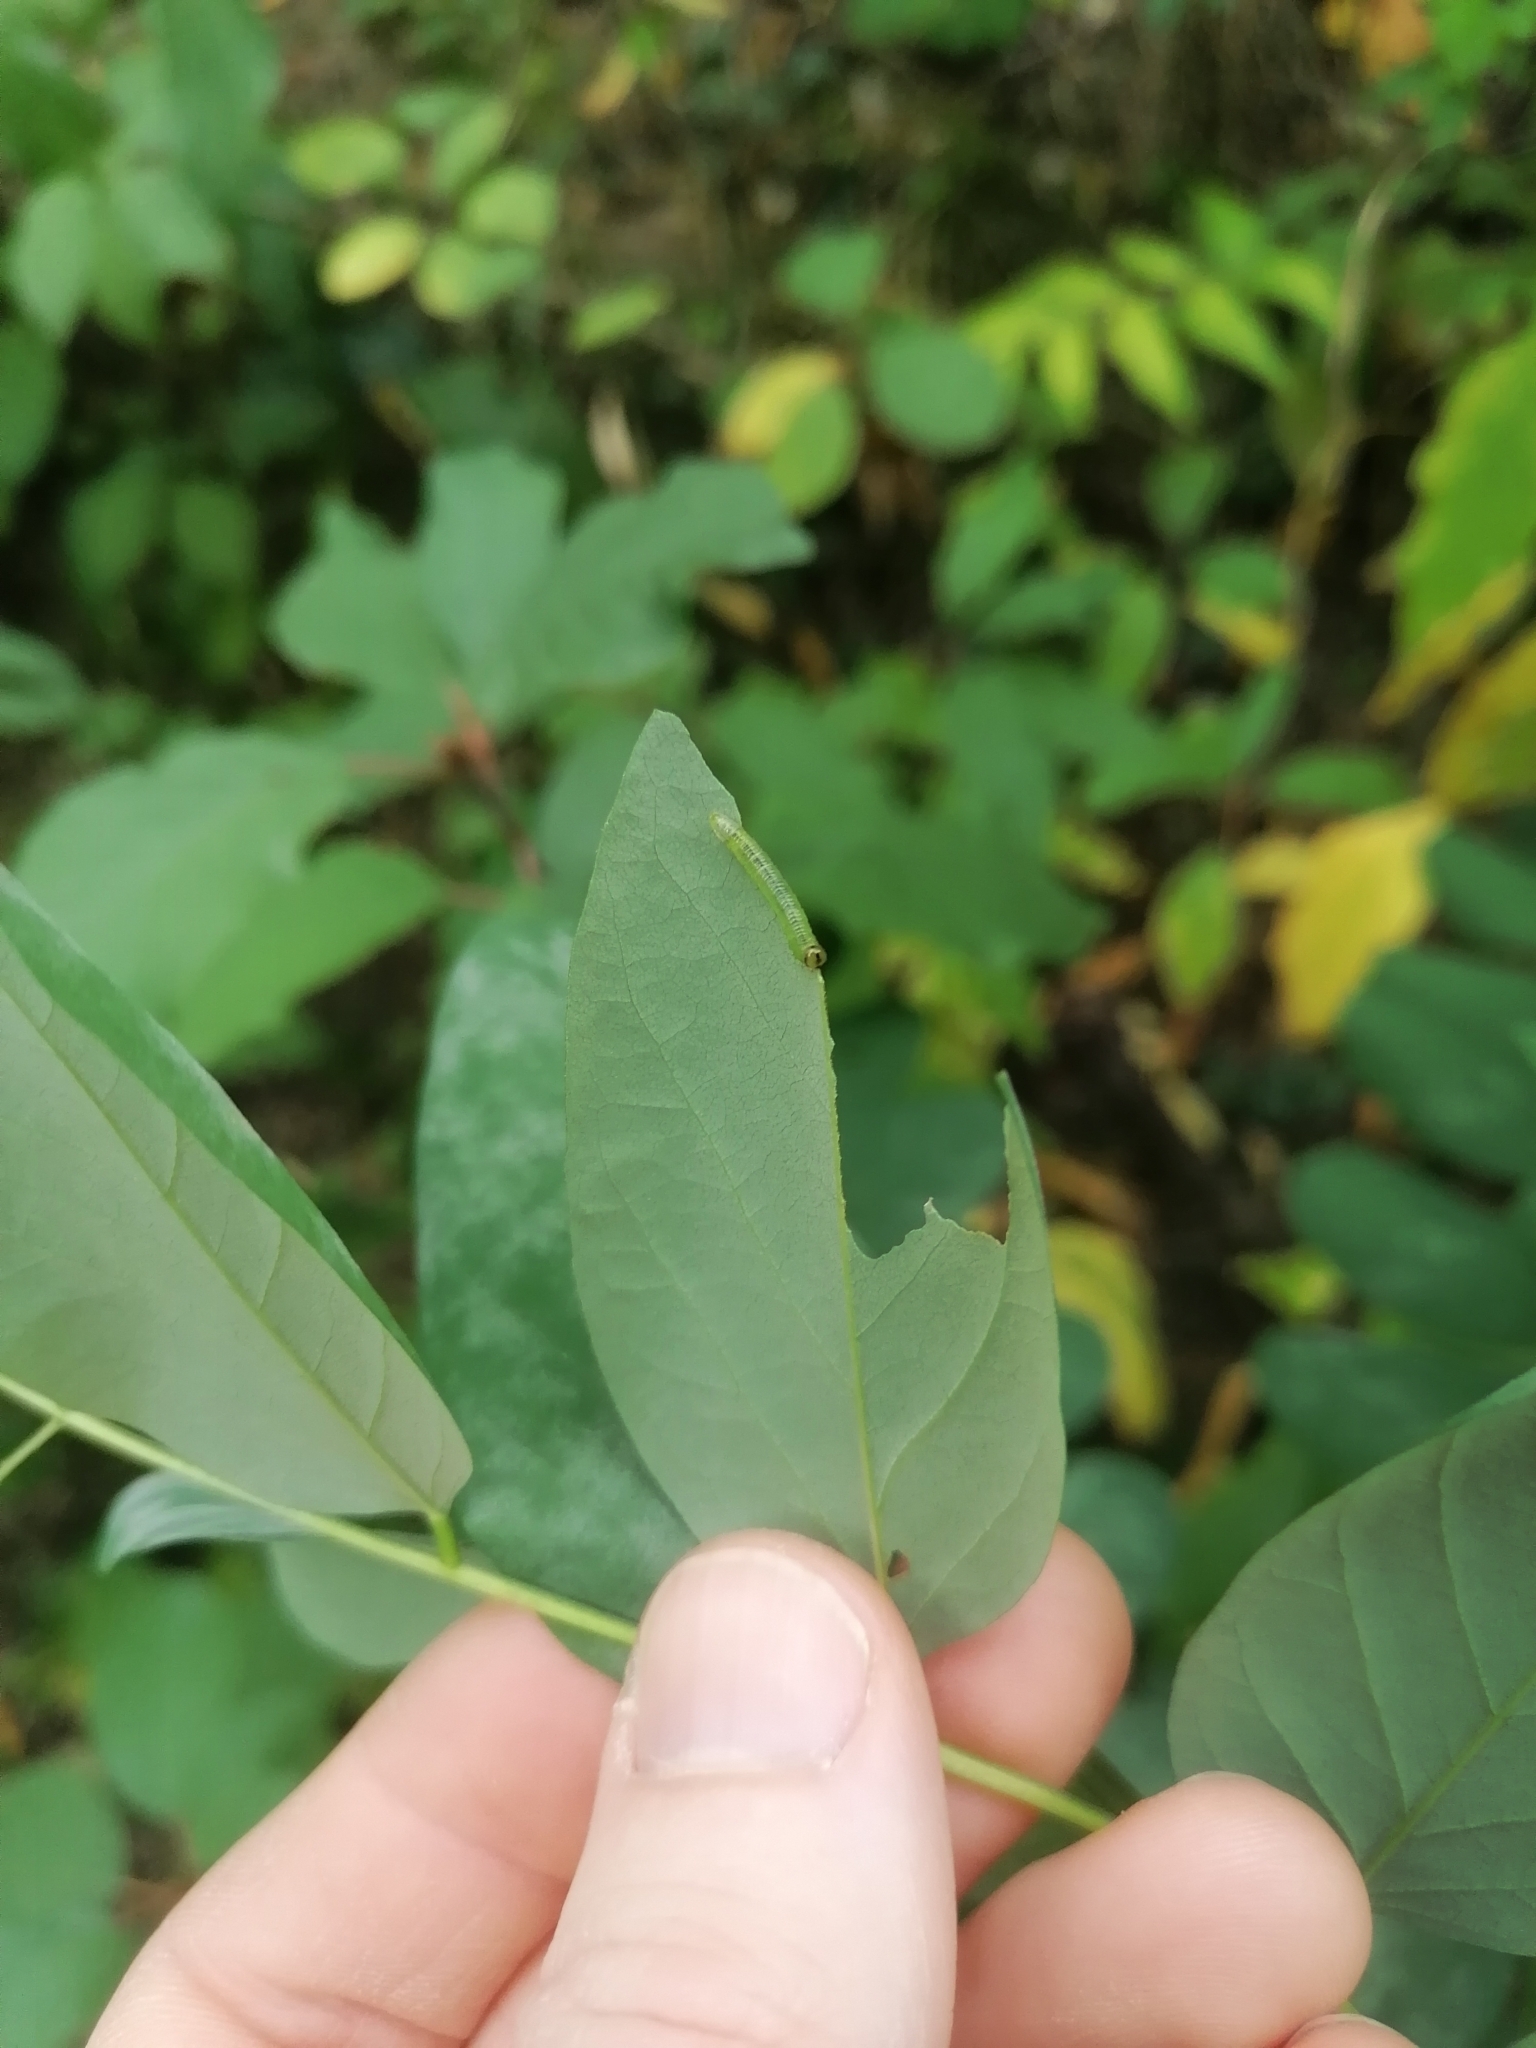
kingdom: Animalia
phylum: Arthropoda
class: Insecta
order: Hymenoptera
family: Tenthredinidae
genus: Euura
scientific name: Euura tibialis
